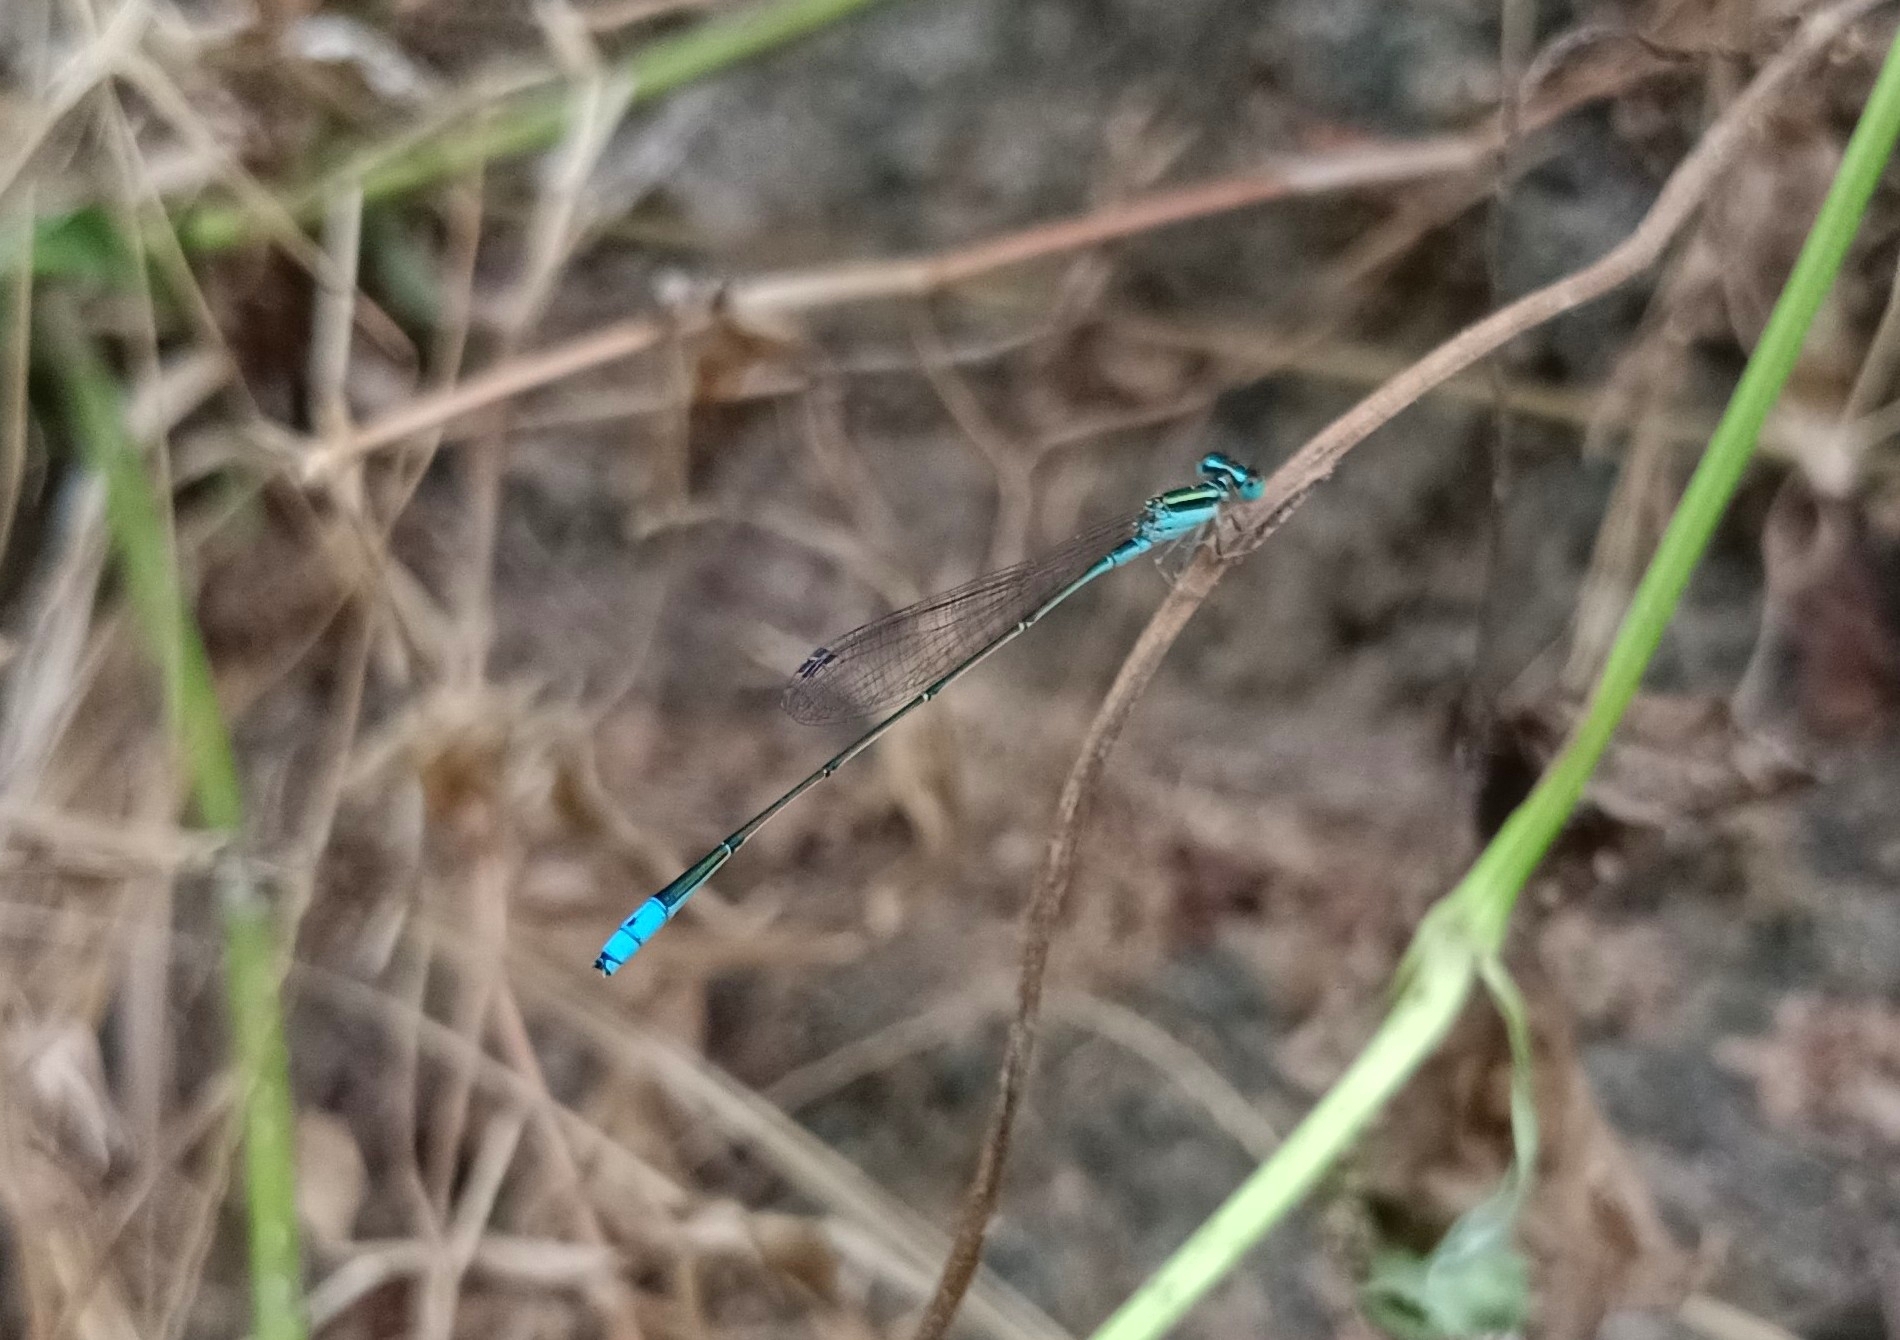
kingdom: Animalia
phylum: Arthropoda
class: Insecta
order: Odonata
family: Coenagrionidae
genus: Aciagrion
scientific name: Aciagrion occidentale
